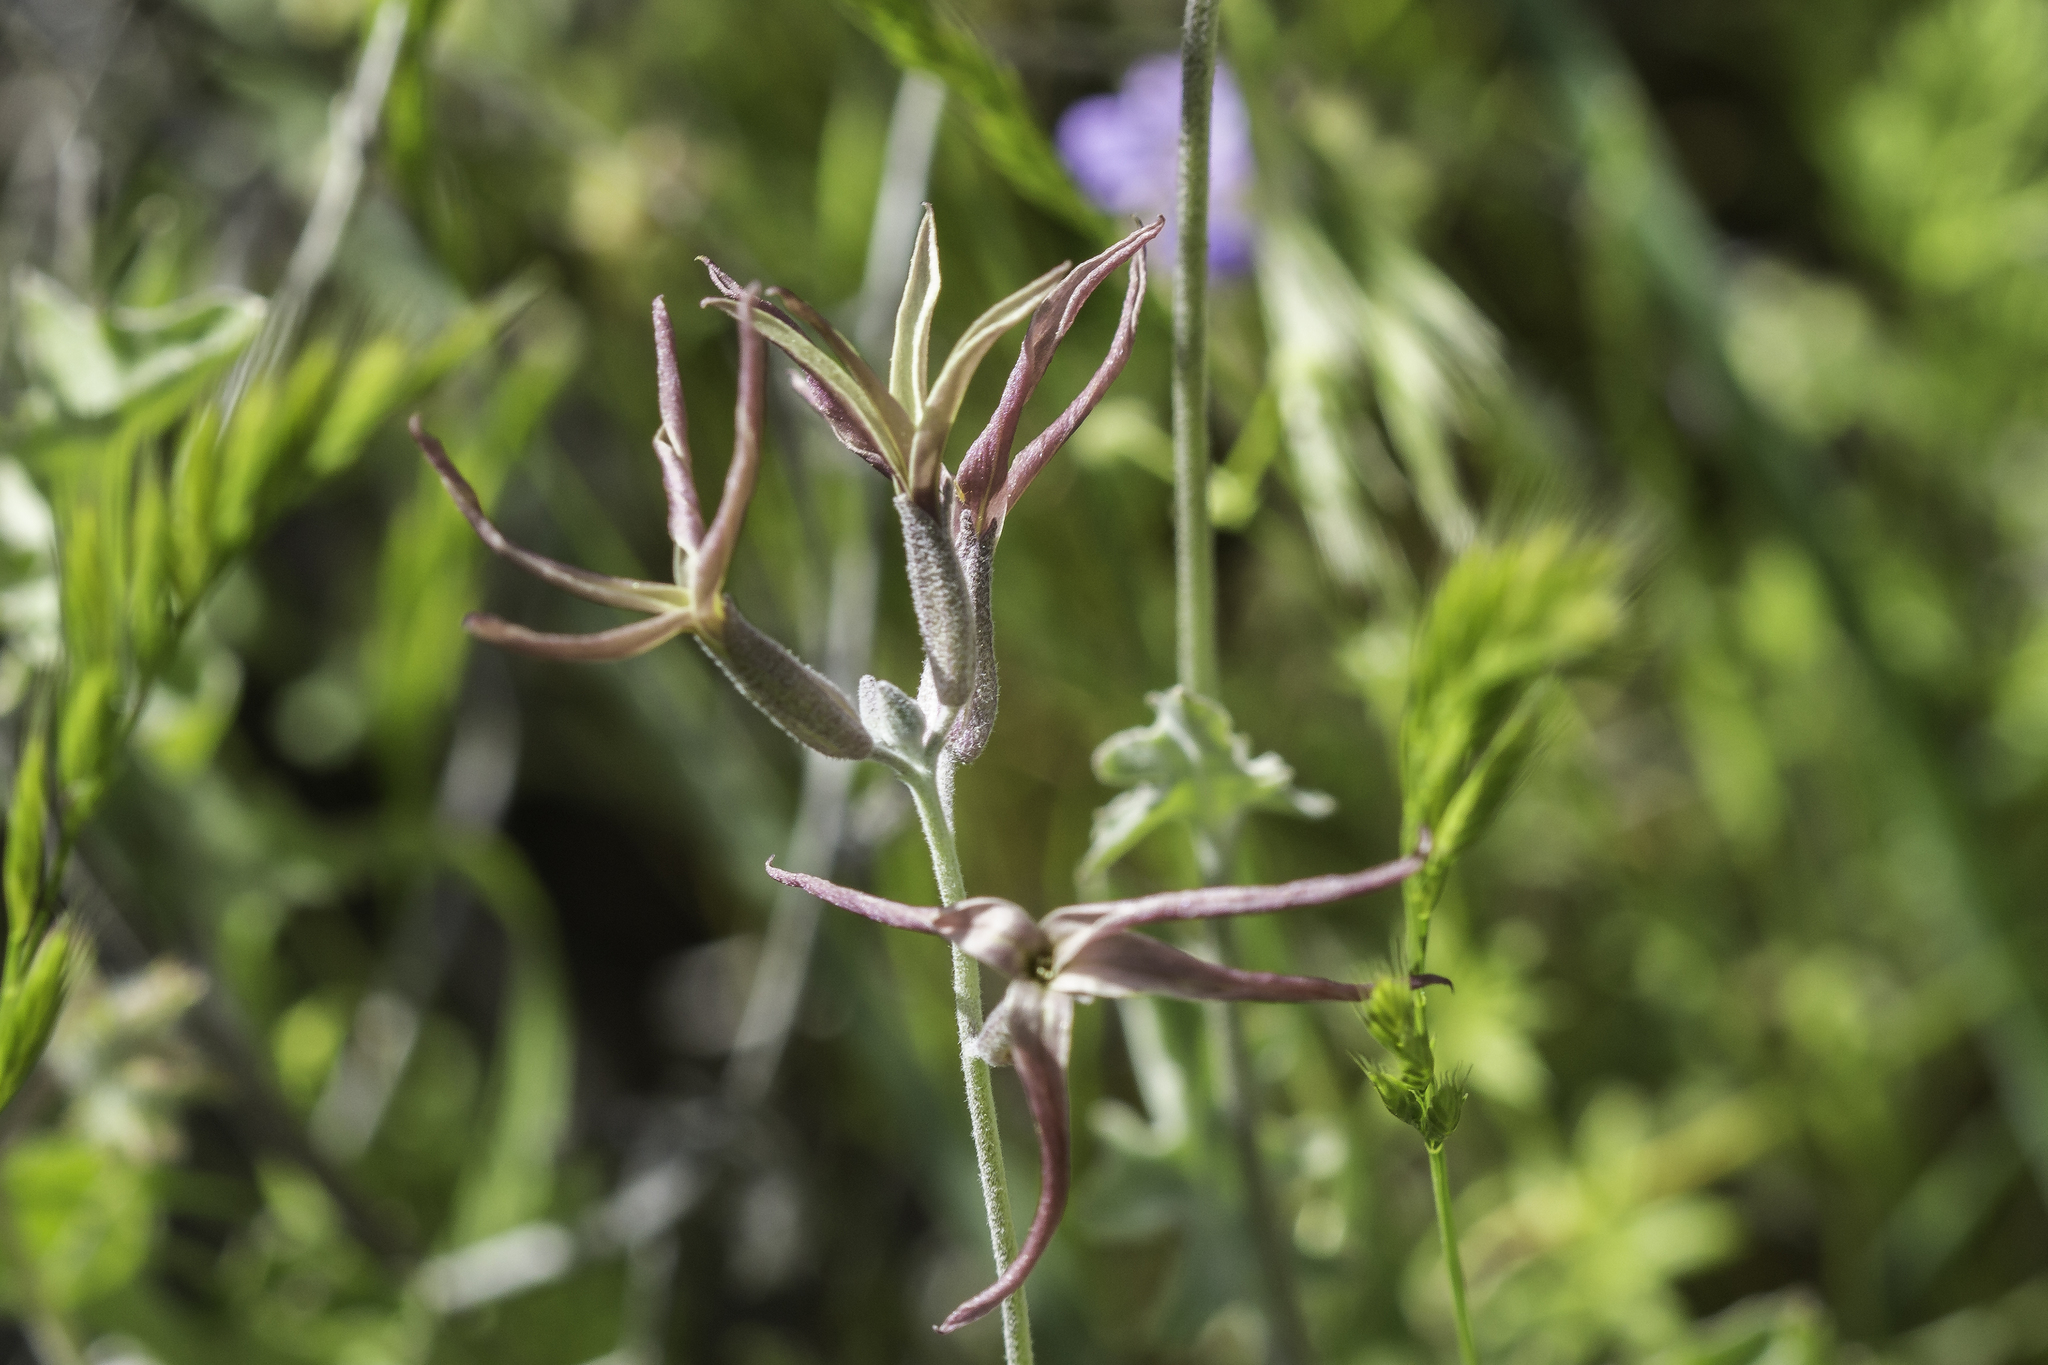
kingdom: Plantae
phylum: Tracheophyta
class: Magnoliopsida
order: Brassicales
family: Brassicaceae
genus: Lyrocarpa
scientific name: Lyrocarpa coulteri
